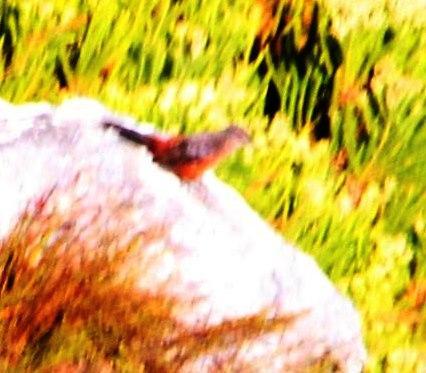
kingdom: Animalia
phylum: Chordata
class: Aves
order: Passeriformes
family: Chaetopidae
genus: Chaetops
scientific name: Chaetops frenatus
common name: Cape rockjumper
